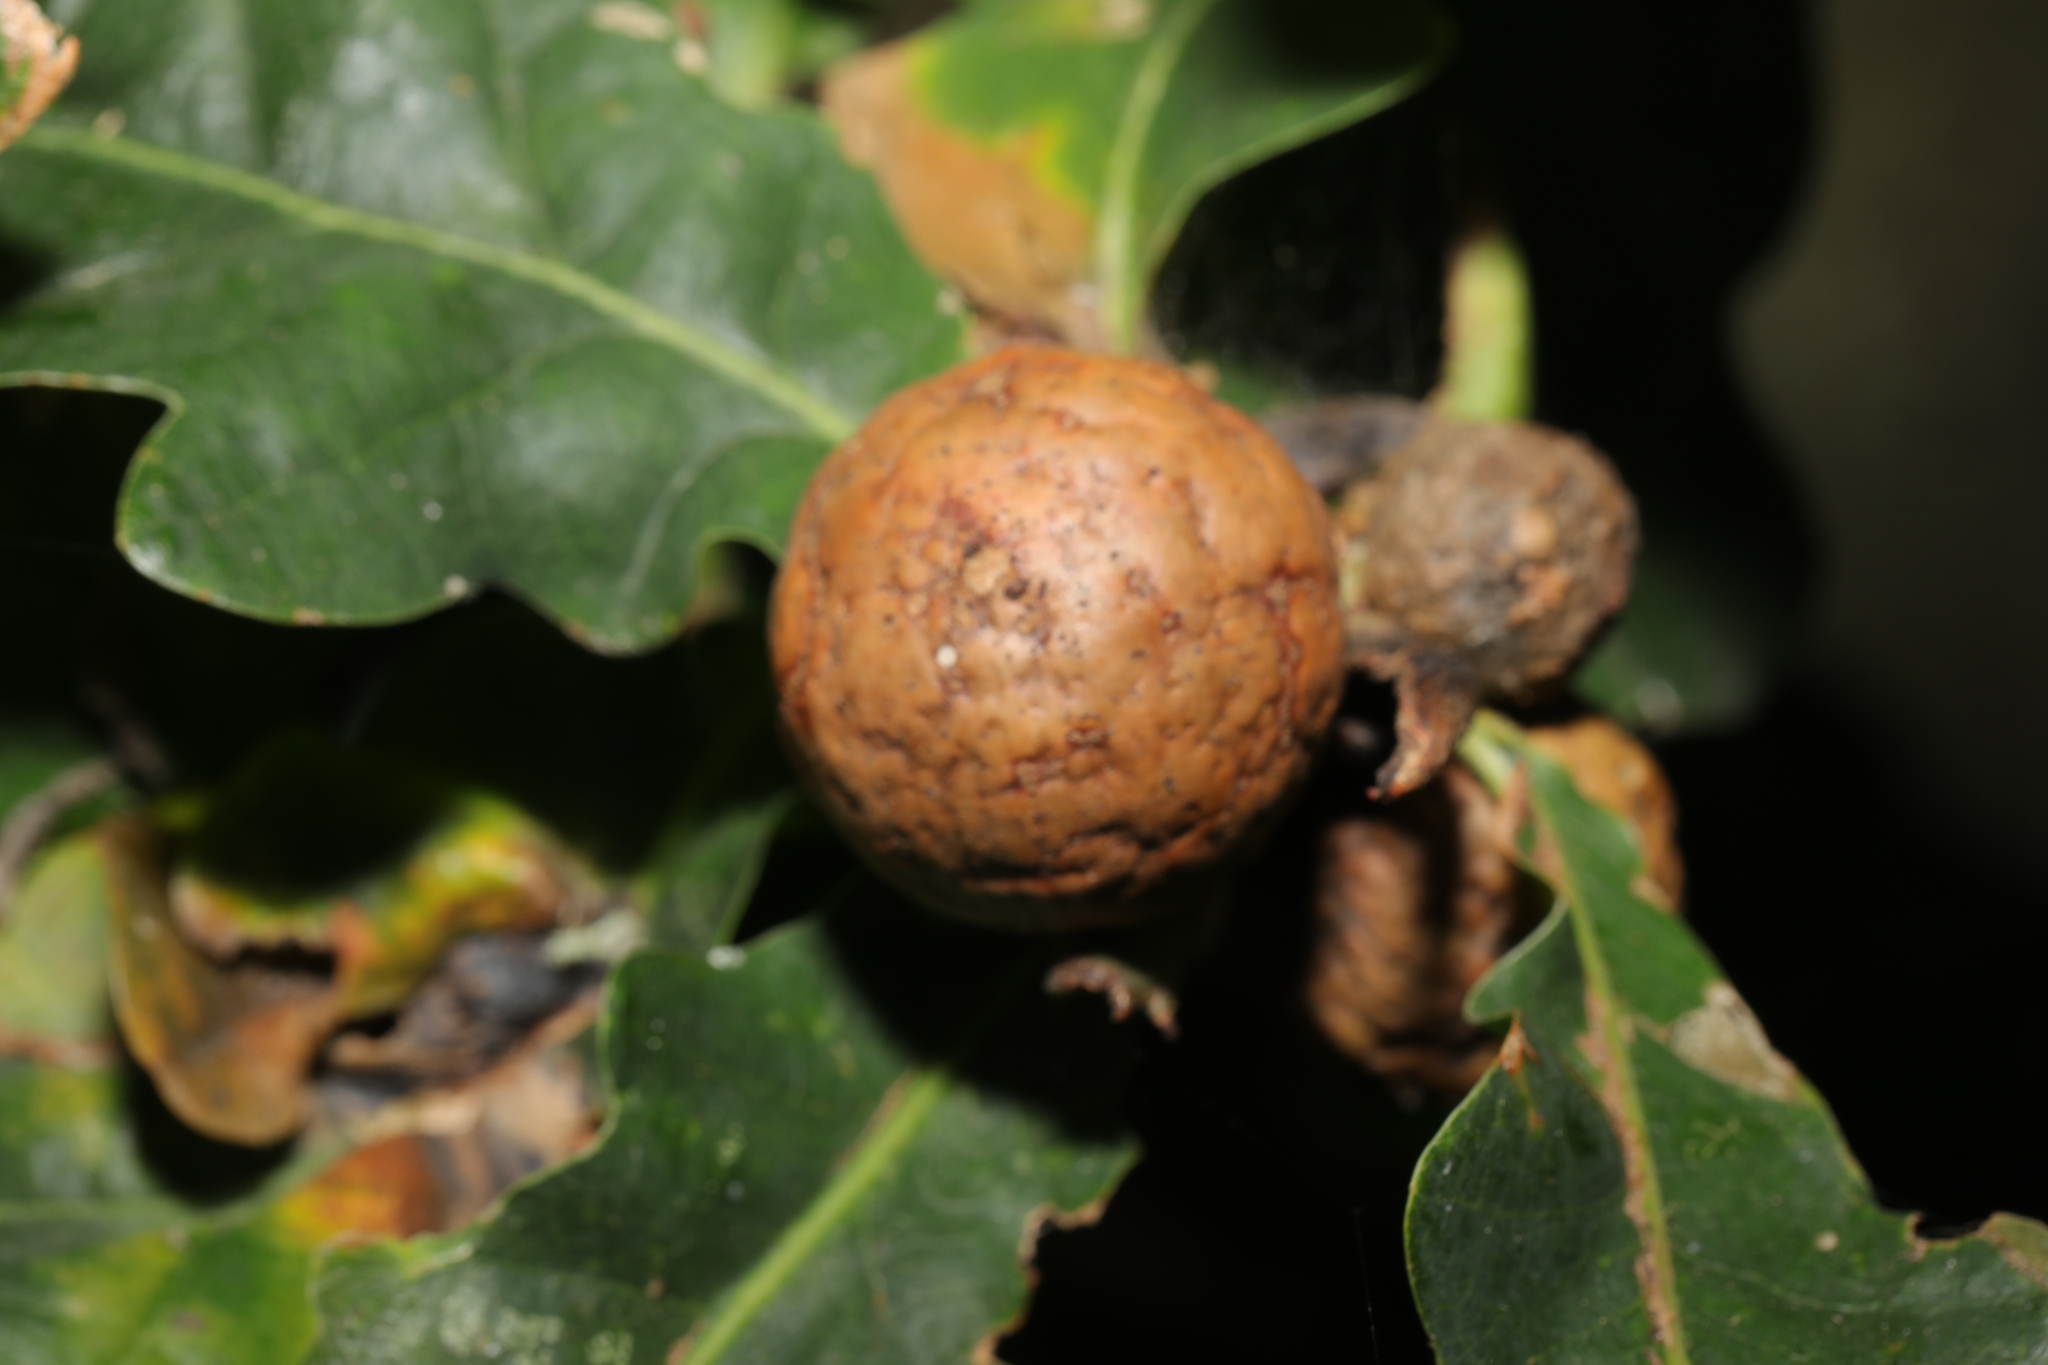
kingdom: Animalia
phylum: Arthropoda
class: Insecta
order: Hymenoptera
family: Cynipidae
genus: Andricus
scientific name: Andricus kollari
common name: Marble gall
